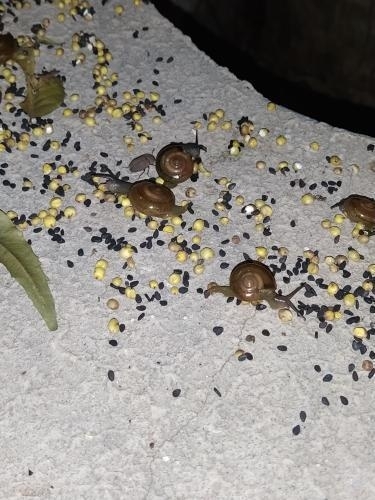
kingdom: Animalia
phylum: Mollusca
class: Gastropoda
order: Stylommatophora
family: Ariophantidae
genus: Macrochlamys
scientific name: Macrochlamys hippocastaneum
